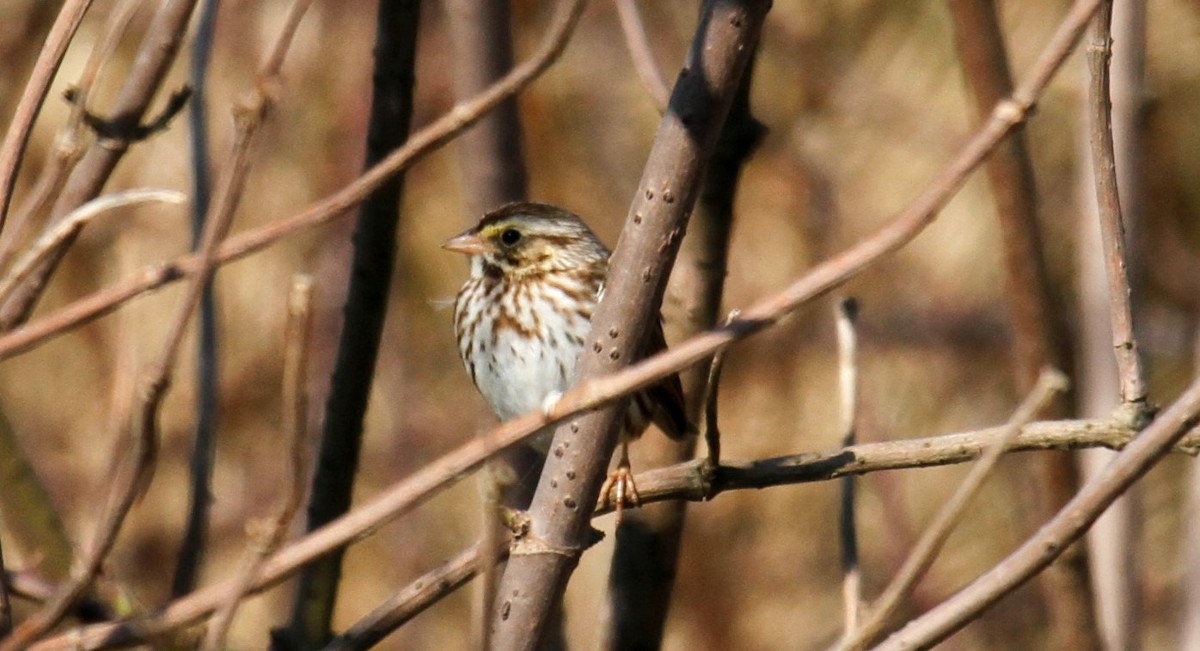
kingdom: Animalia
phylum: Chordata
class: Aves
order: Passeriformes
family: Passerellidae
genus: Passerculus
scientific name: Passerculus sandwichensis
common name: Savannah sparrow
